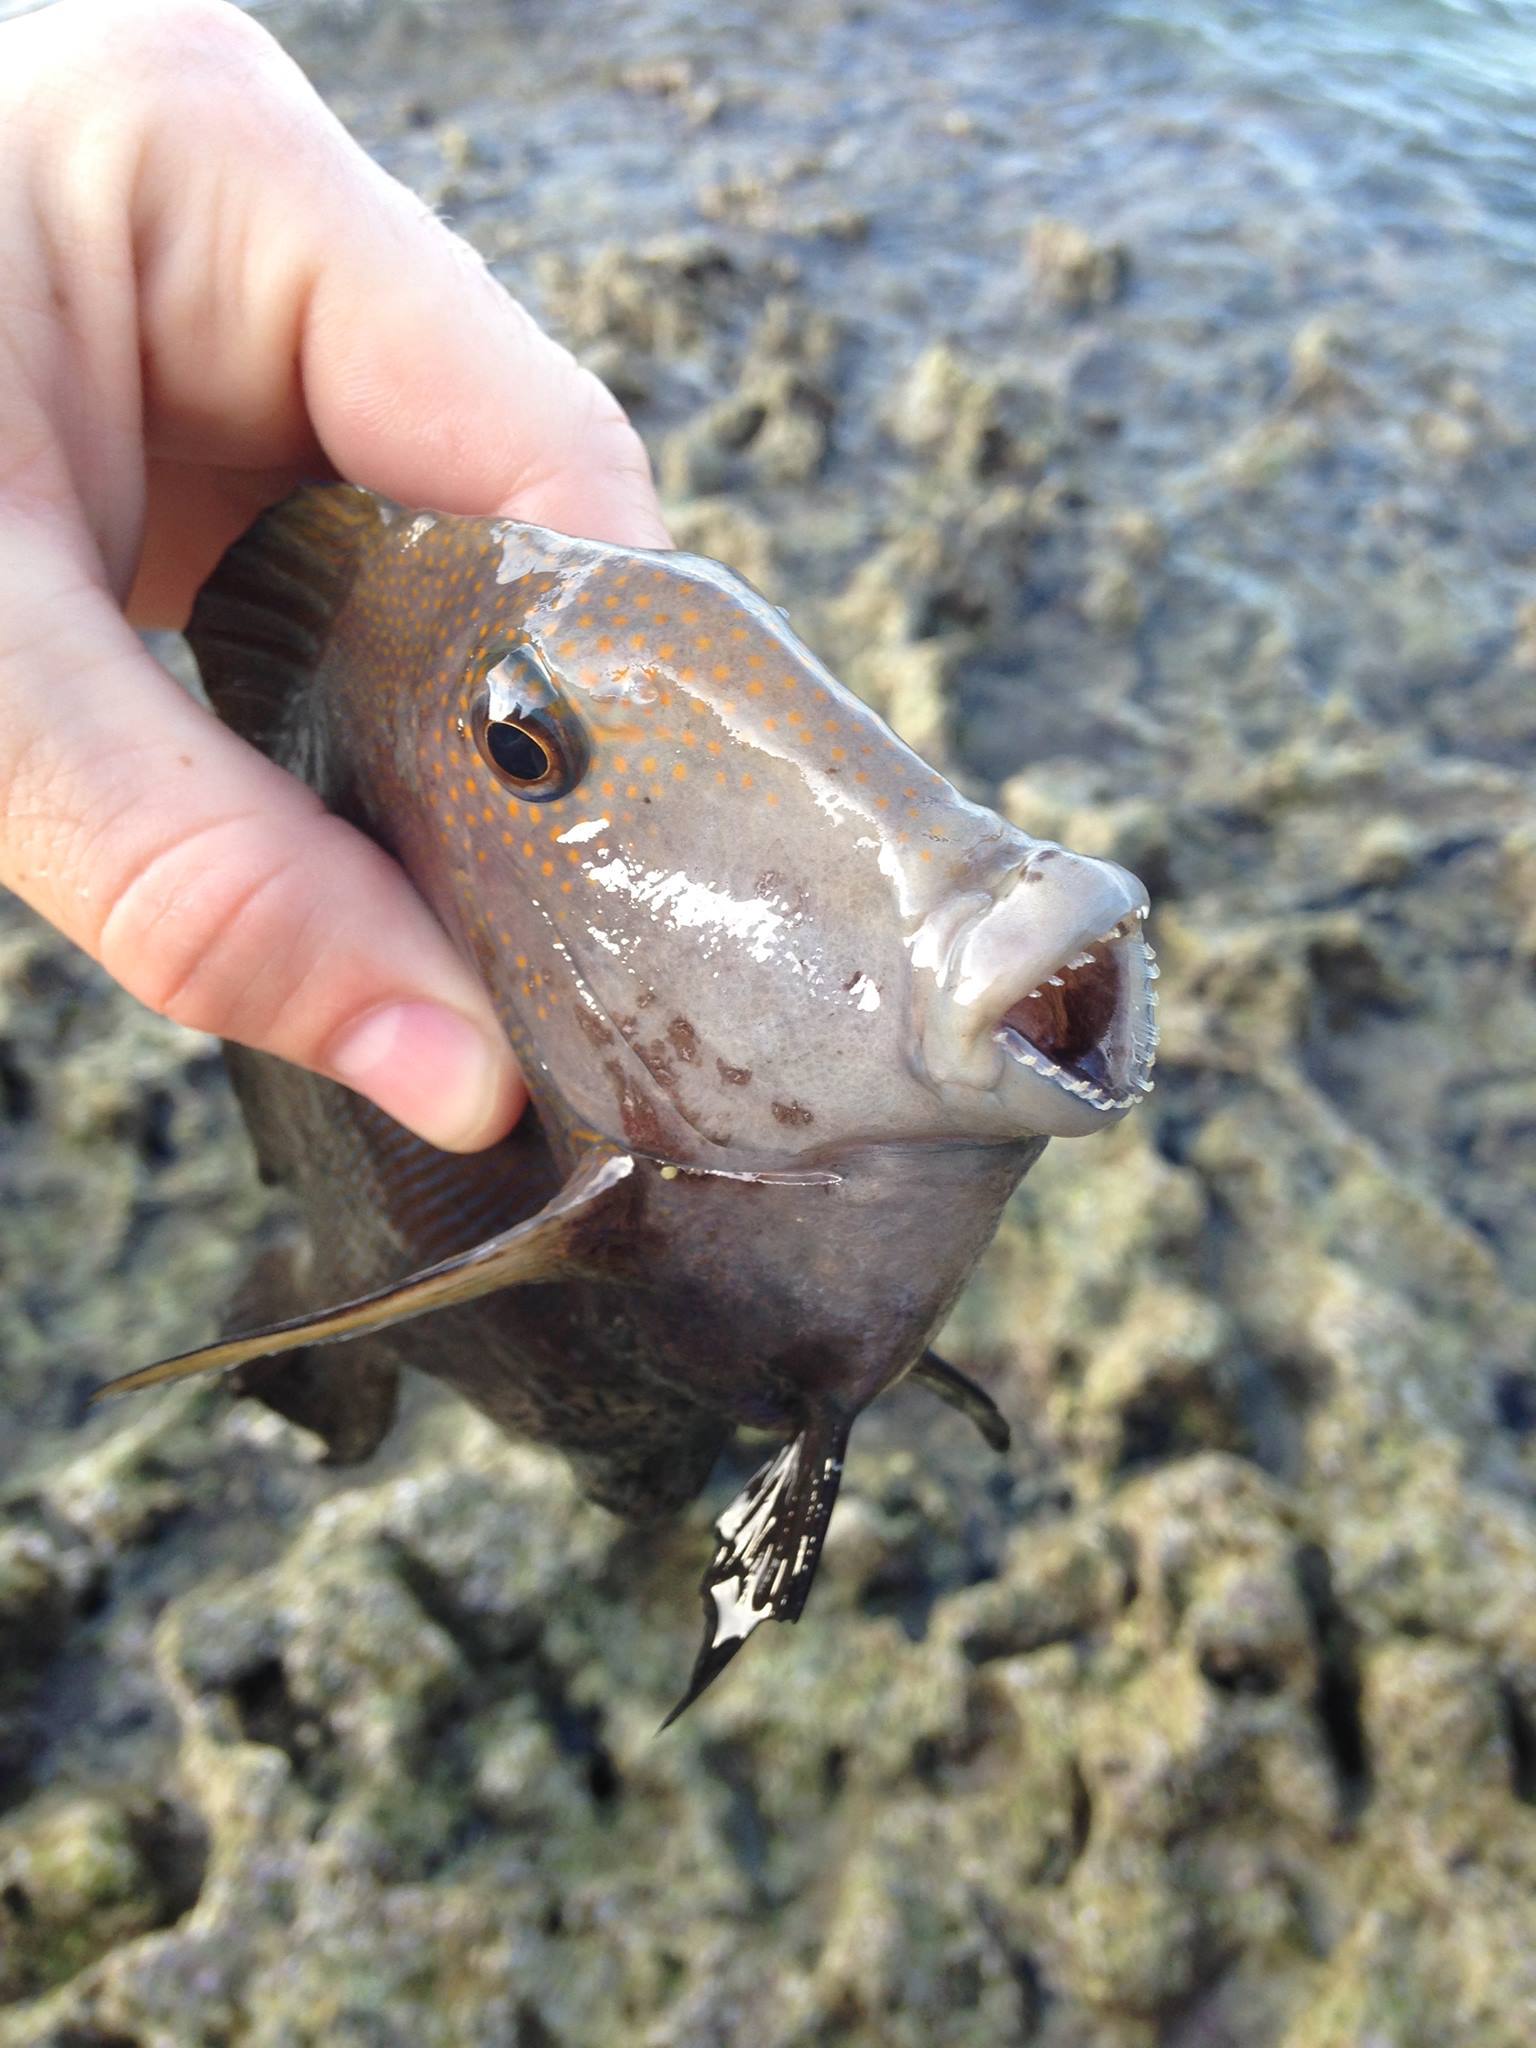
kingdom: Animalia
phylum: Chordata
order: Perciformes
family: Acanthuridae
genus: Ctenochaetus
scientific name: Ctenochaetus striatus
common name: Bristle-toothed surgeonfish
